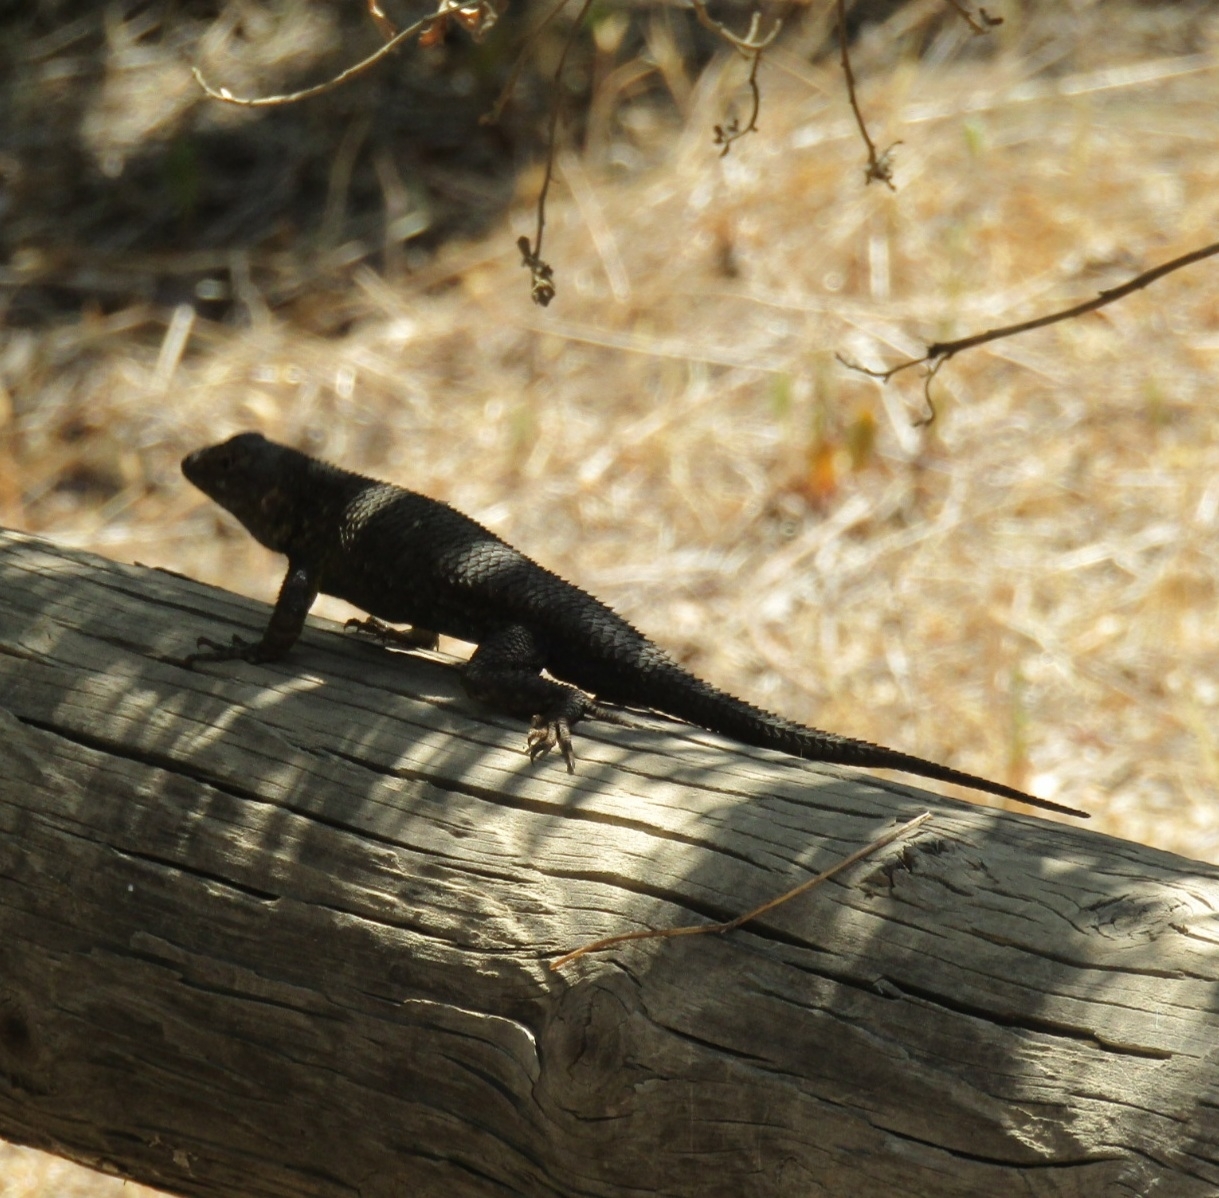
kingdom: Animalia
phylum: Chordata
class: Squamata
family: Phrynosomatidae
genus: Sceloporus
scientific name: Sceloporus occidentalis
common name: Western fence lizard
